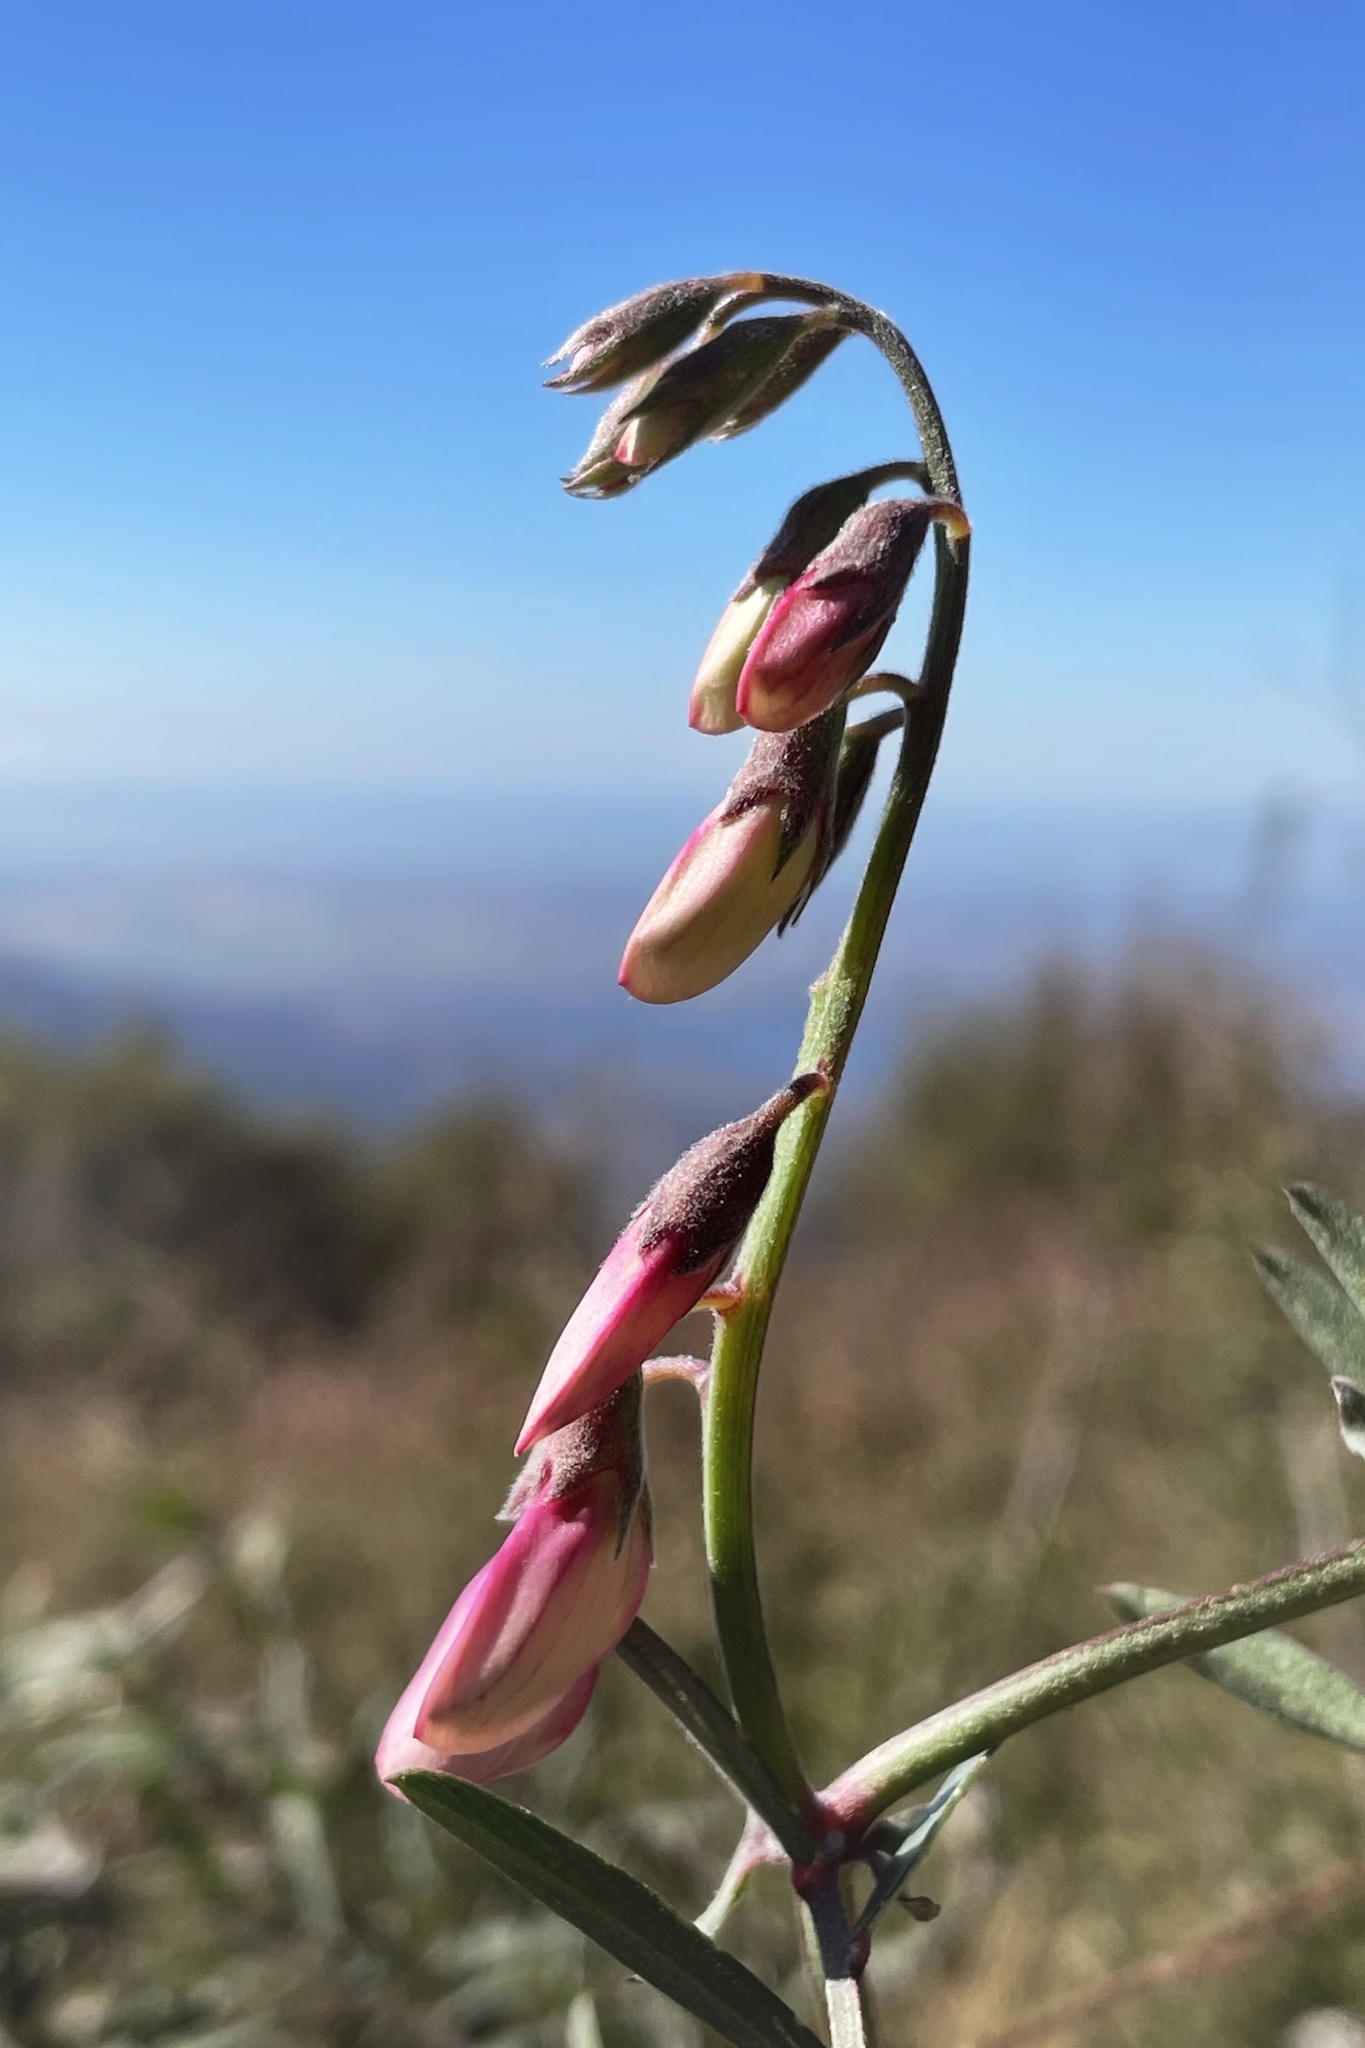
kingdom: Plantae
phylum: Tracheophyta
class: Magnoliopsida
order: Fabales
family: Fabaceae
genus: Lathyrus
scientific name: Lathyrus vestitus
